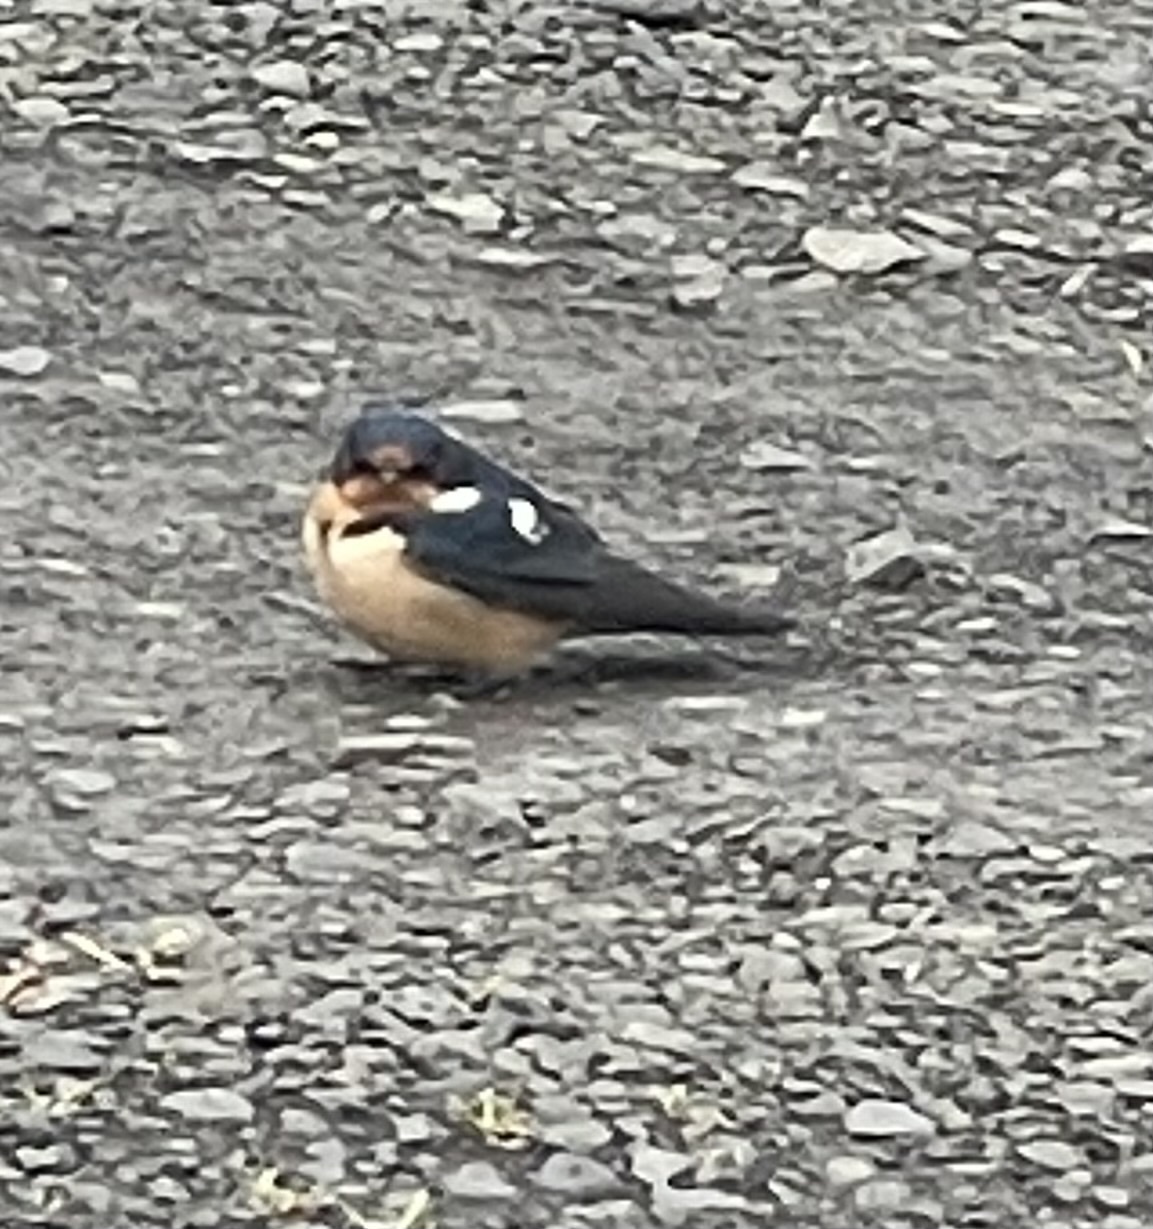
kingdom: Animalia
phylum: Chordata
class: Aves
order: Passeriformes
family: Hirundinidae
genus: Hirundo
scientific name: Hirundo rustica
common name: Barn swallow
